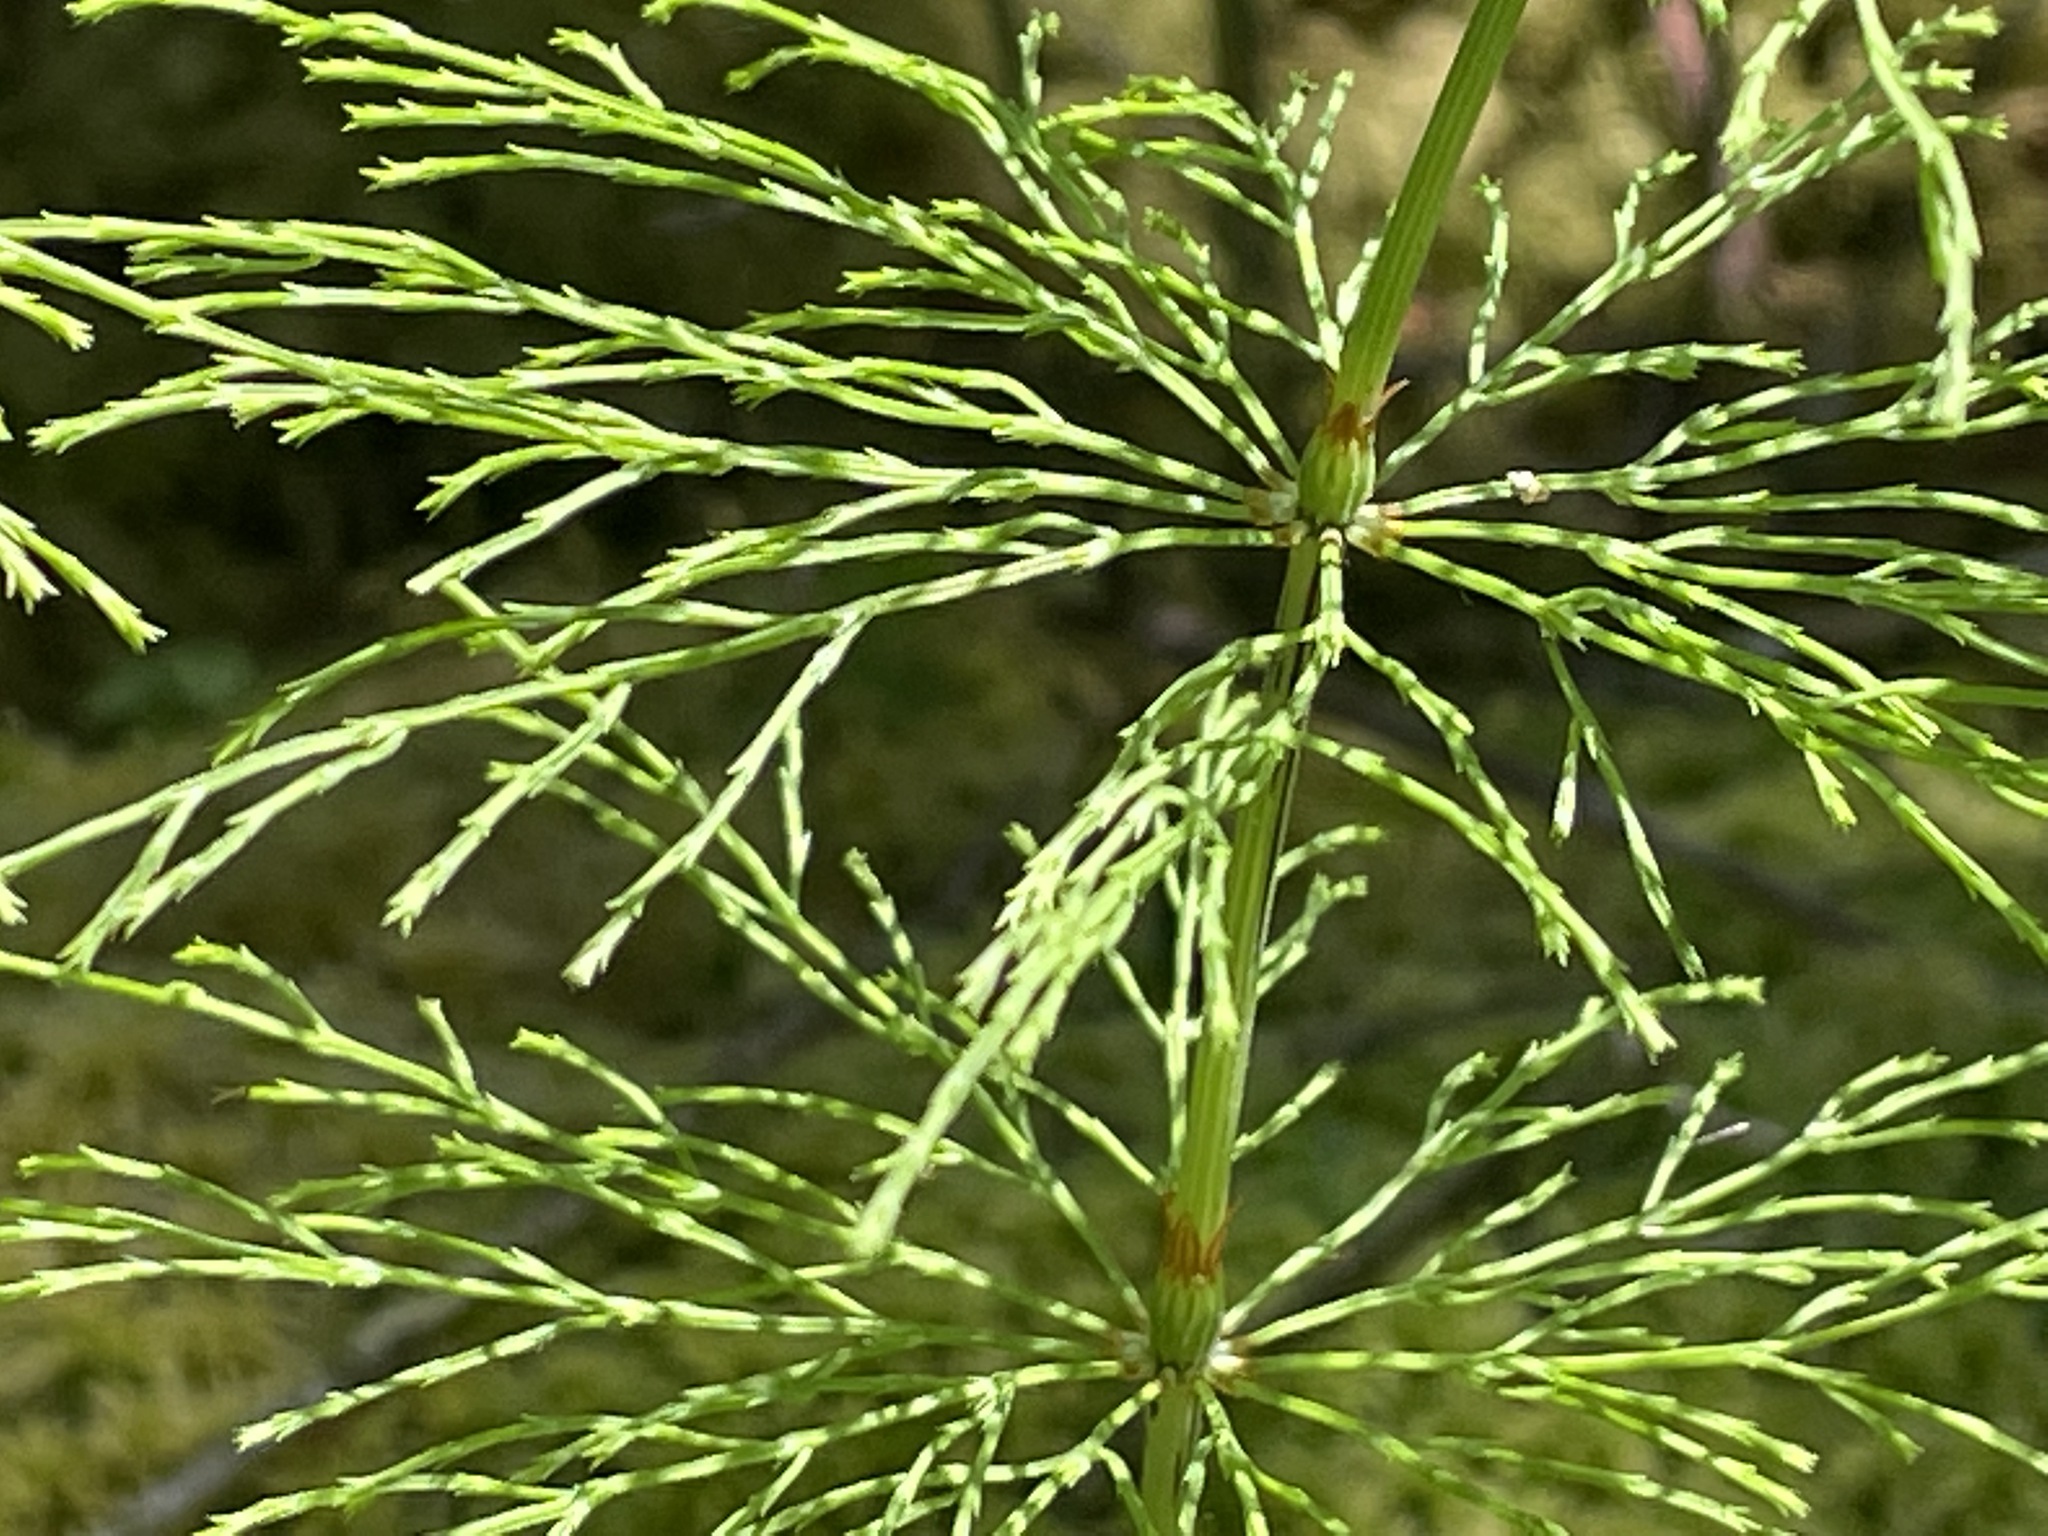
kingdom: Plantae
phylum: Tracheophyta
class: Polypodiopsida
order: Equisetales
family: Equisetaceae
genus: Equisetum
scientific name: Equisetum sylvaticum
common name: Wood horsetail
